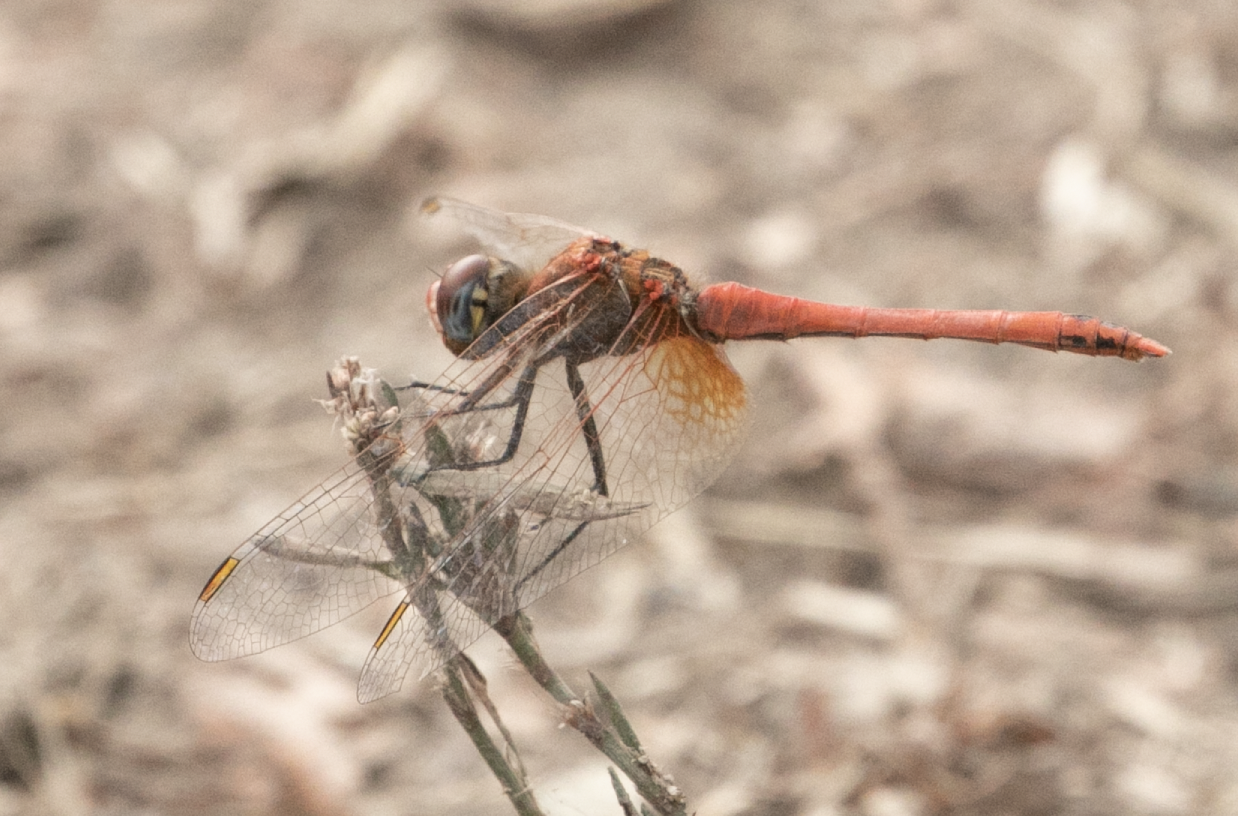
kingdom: Animalia
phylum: Arthropoda
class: Insecta
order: Odonata
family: Libellulidae
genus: Sympetrum
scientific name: Sympetrum fonscolombii
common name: Red-veined darter
